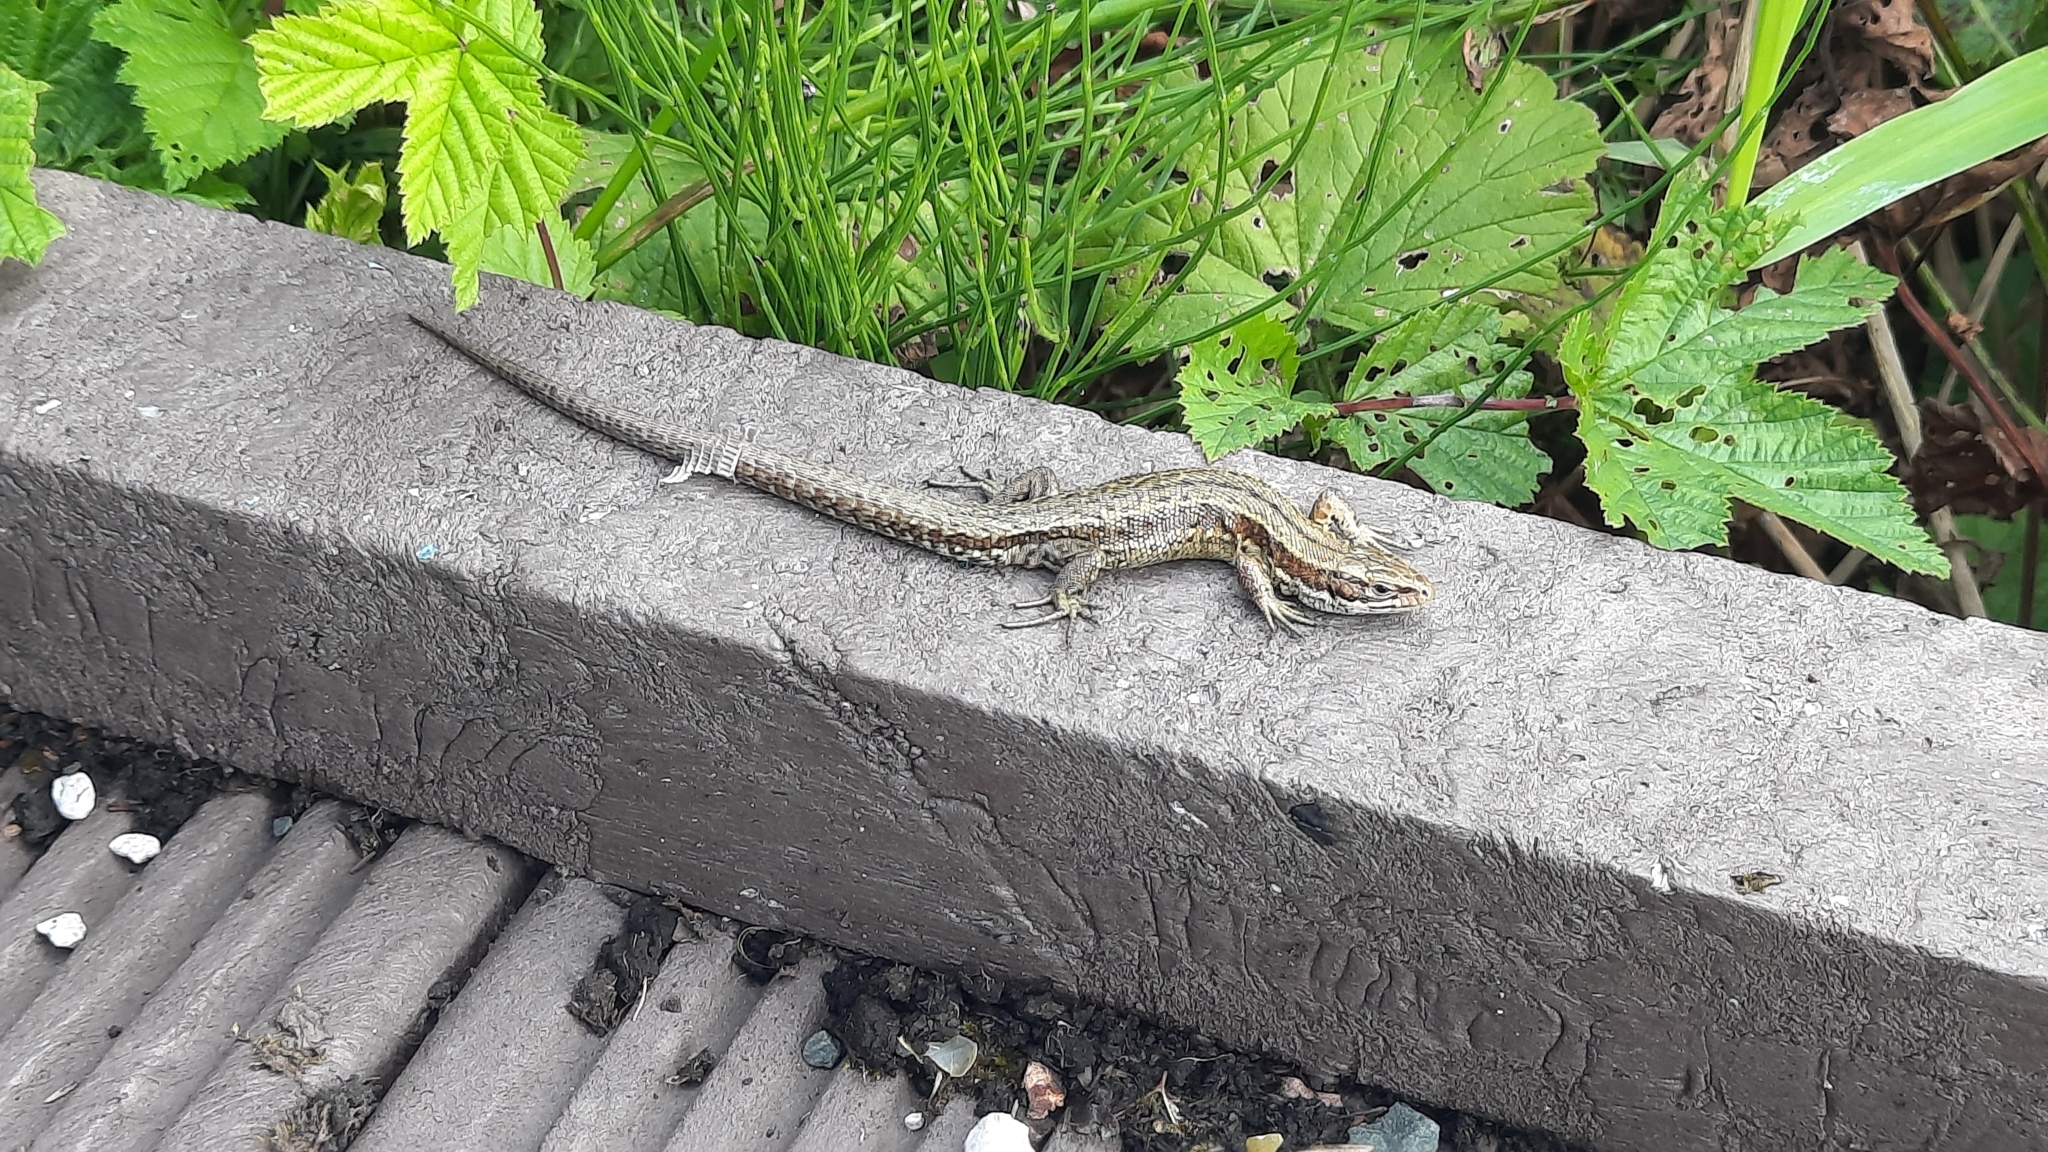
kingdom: Animalia
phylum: Chordata
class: Squamata
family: Lacertidae
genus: Zootoca
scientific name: Zootoca vivipara
